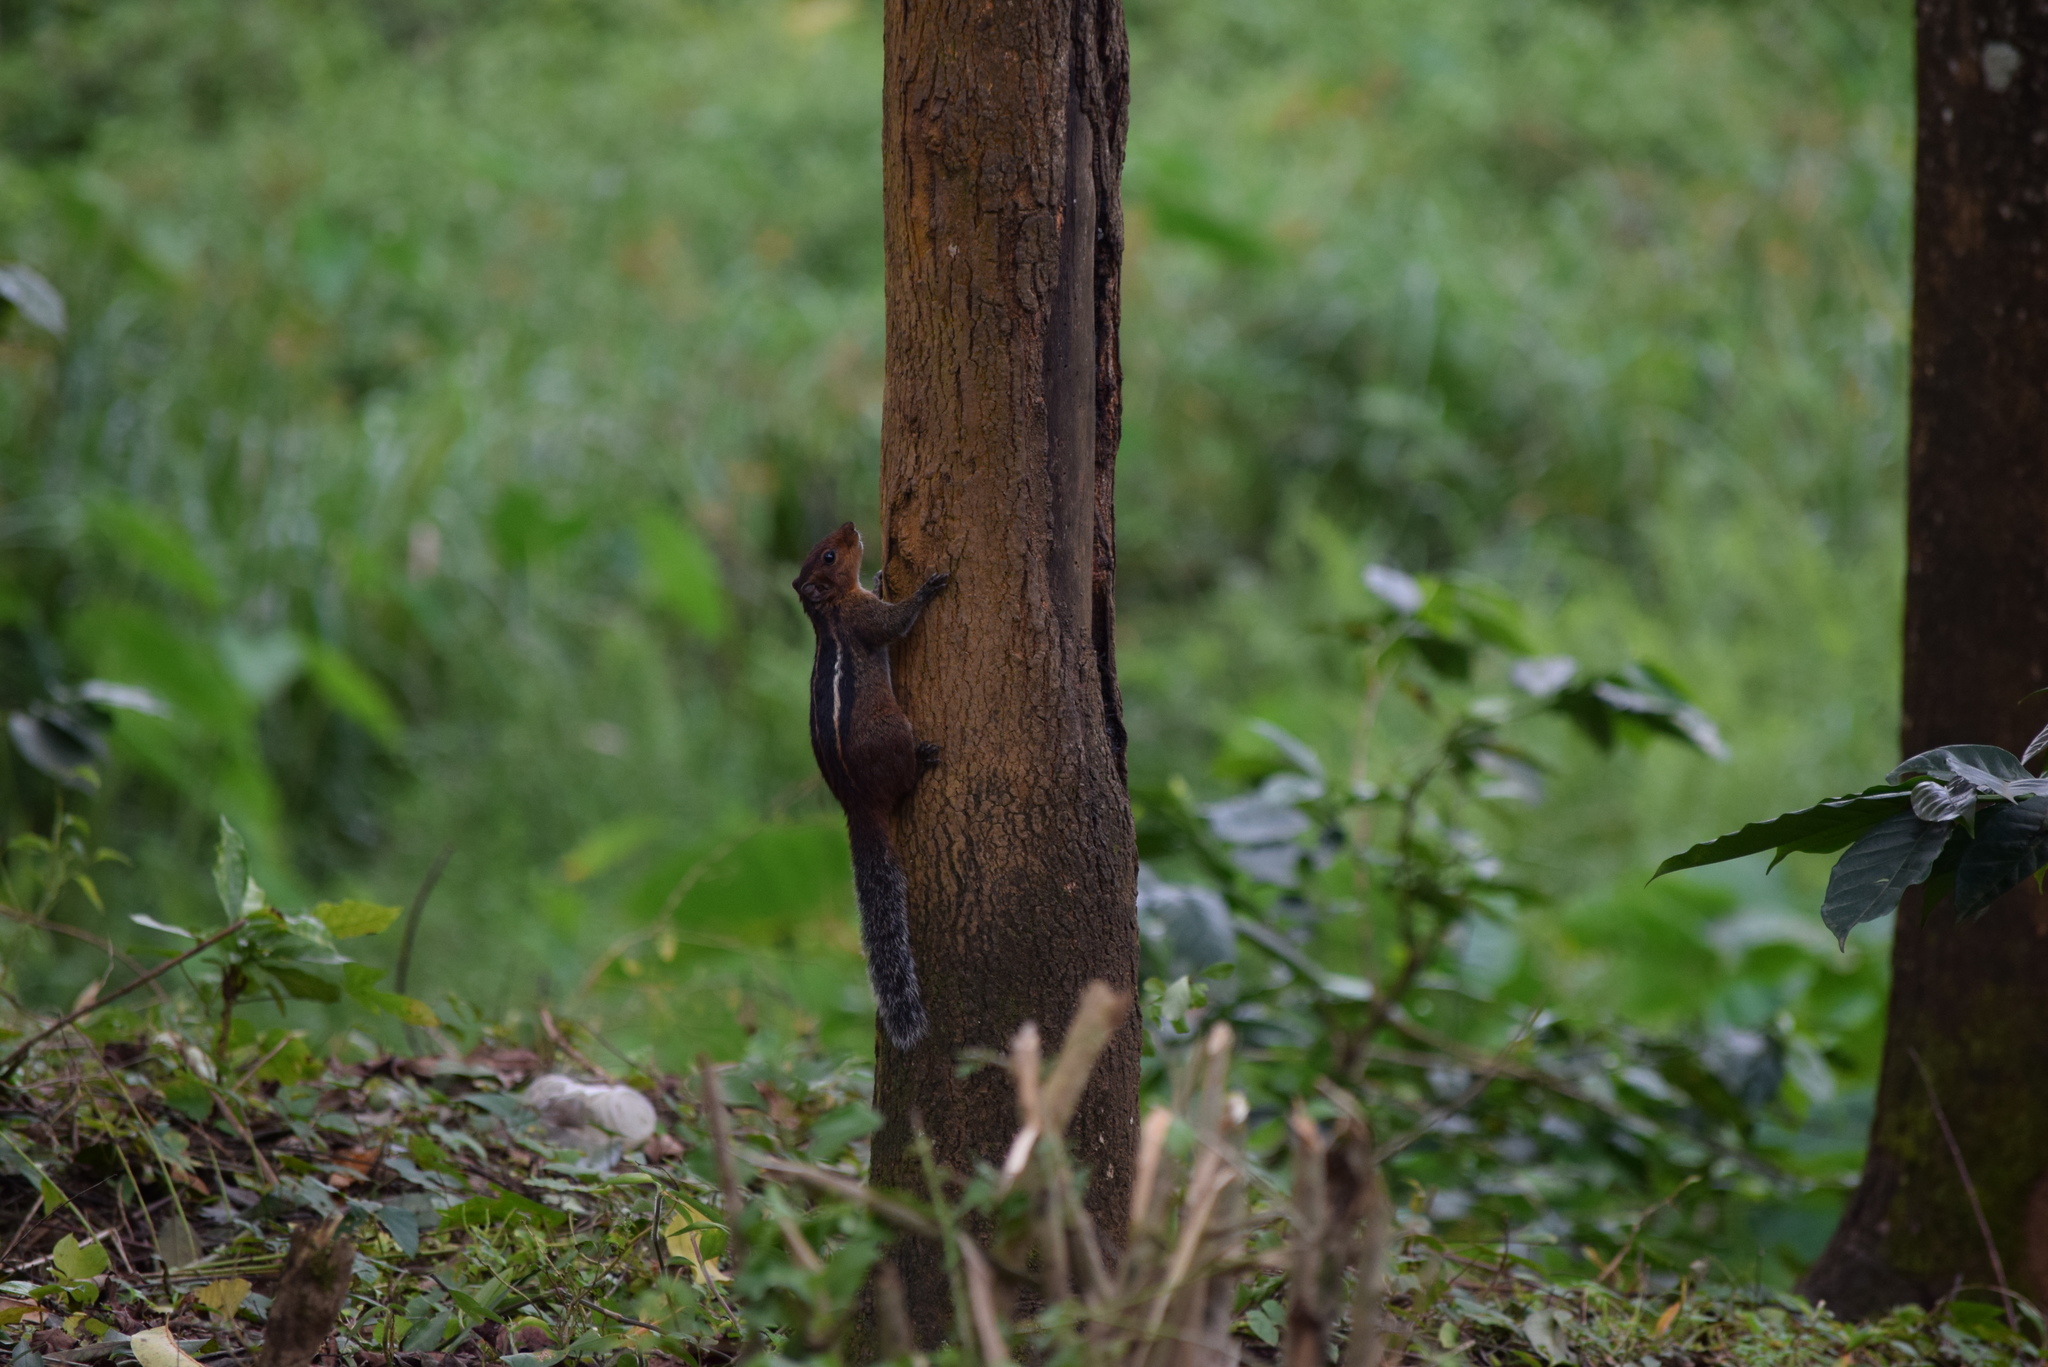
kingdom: Animalia
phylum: Chordata
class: Mammalia
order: Rodentia
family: Sciuridae
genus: Funambulus
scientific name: Funambulus tristriatus
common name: Jungle palm squirrel
